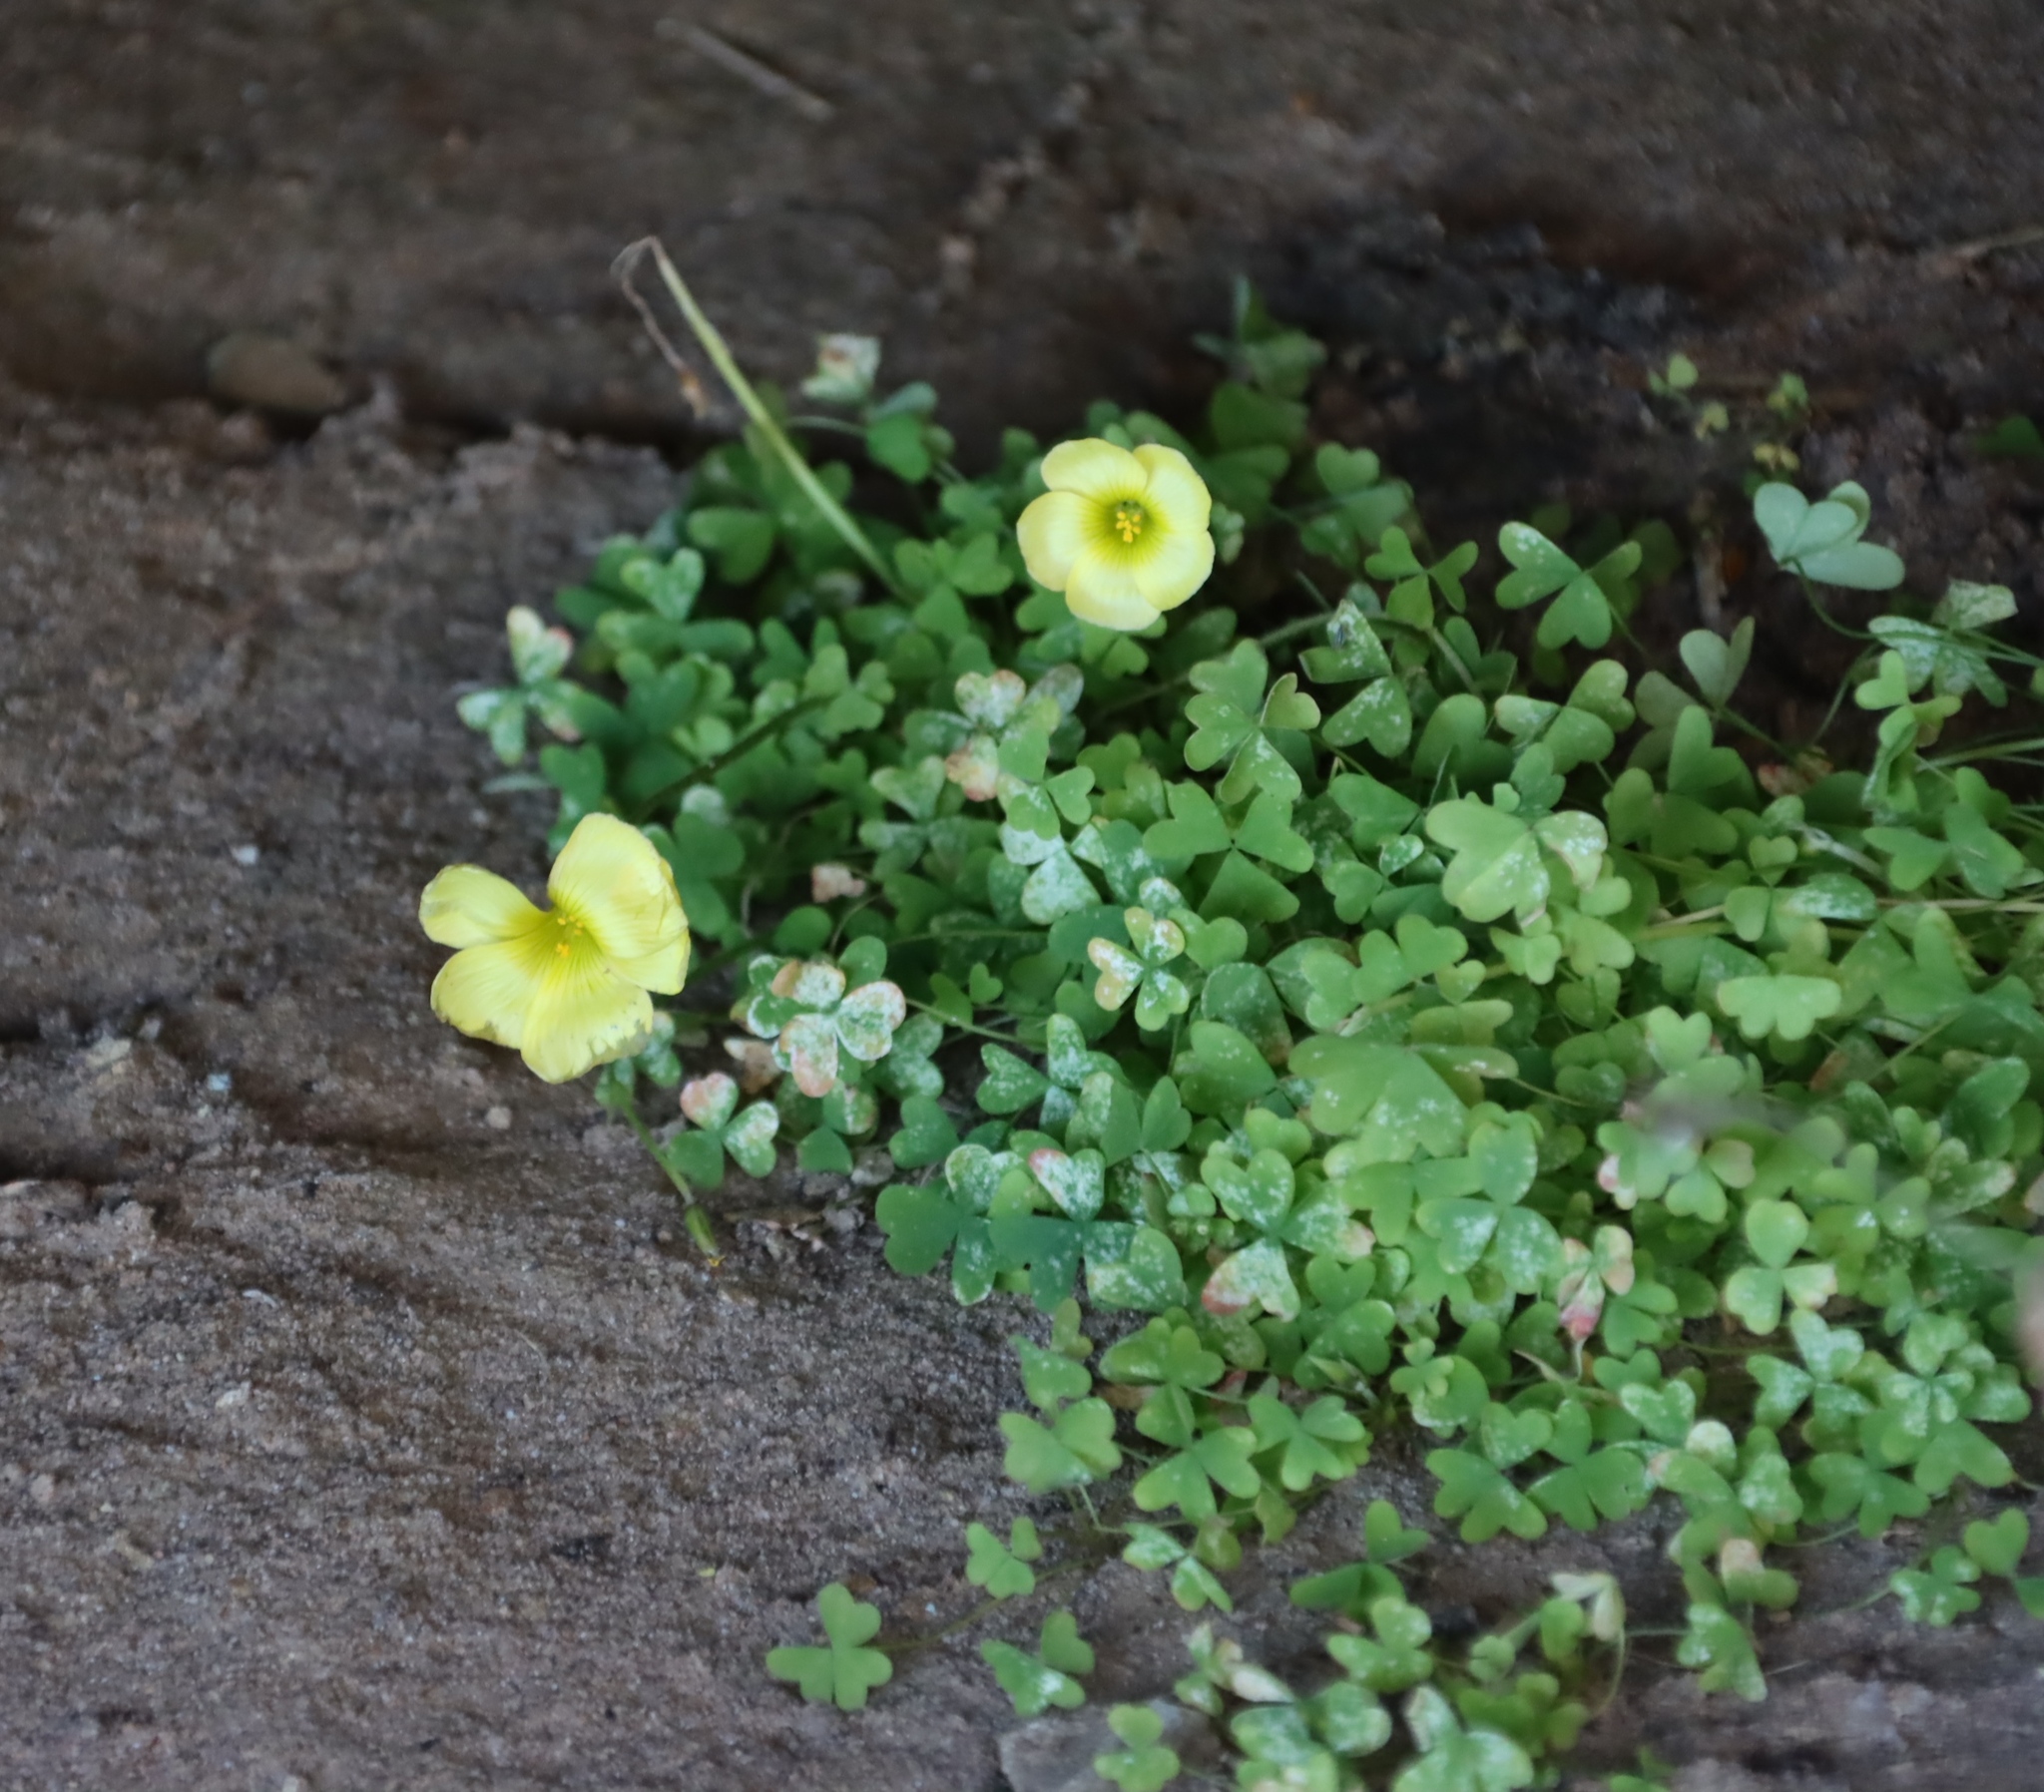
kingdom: Plantae
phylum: Tracheophyta
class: Magnoliopsida
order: Oxalidales
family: Oxalidaceae
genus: Oxalis
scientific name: Oxalis obtusa
